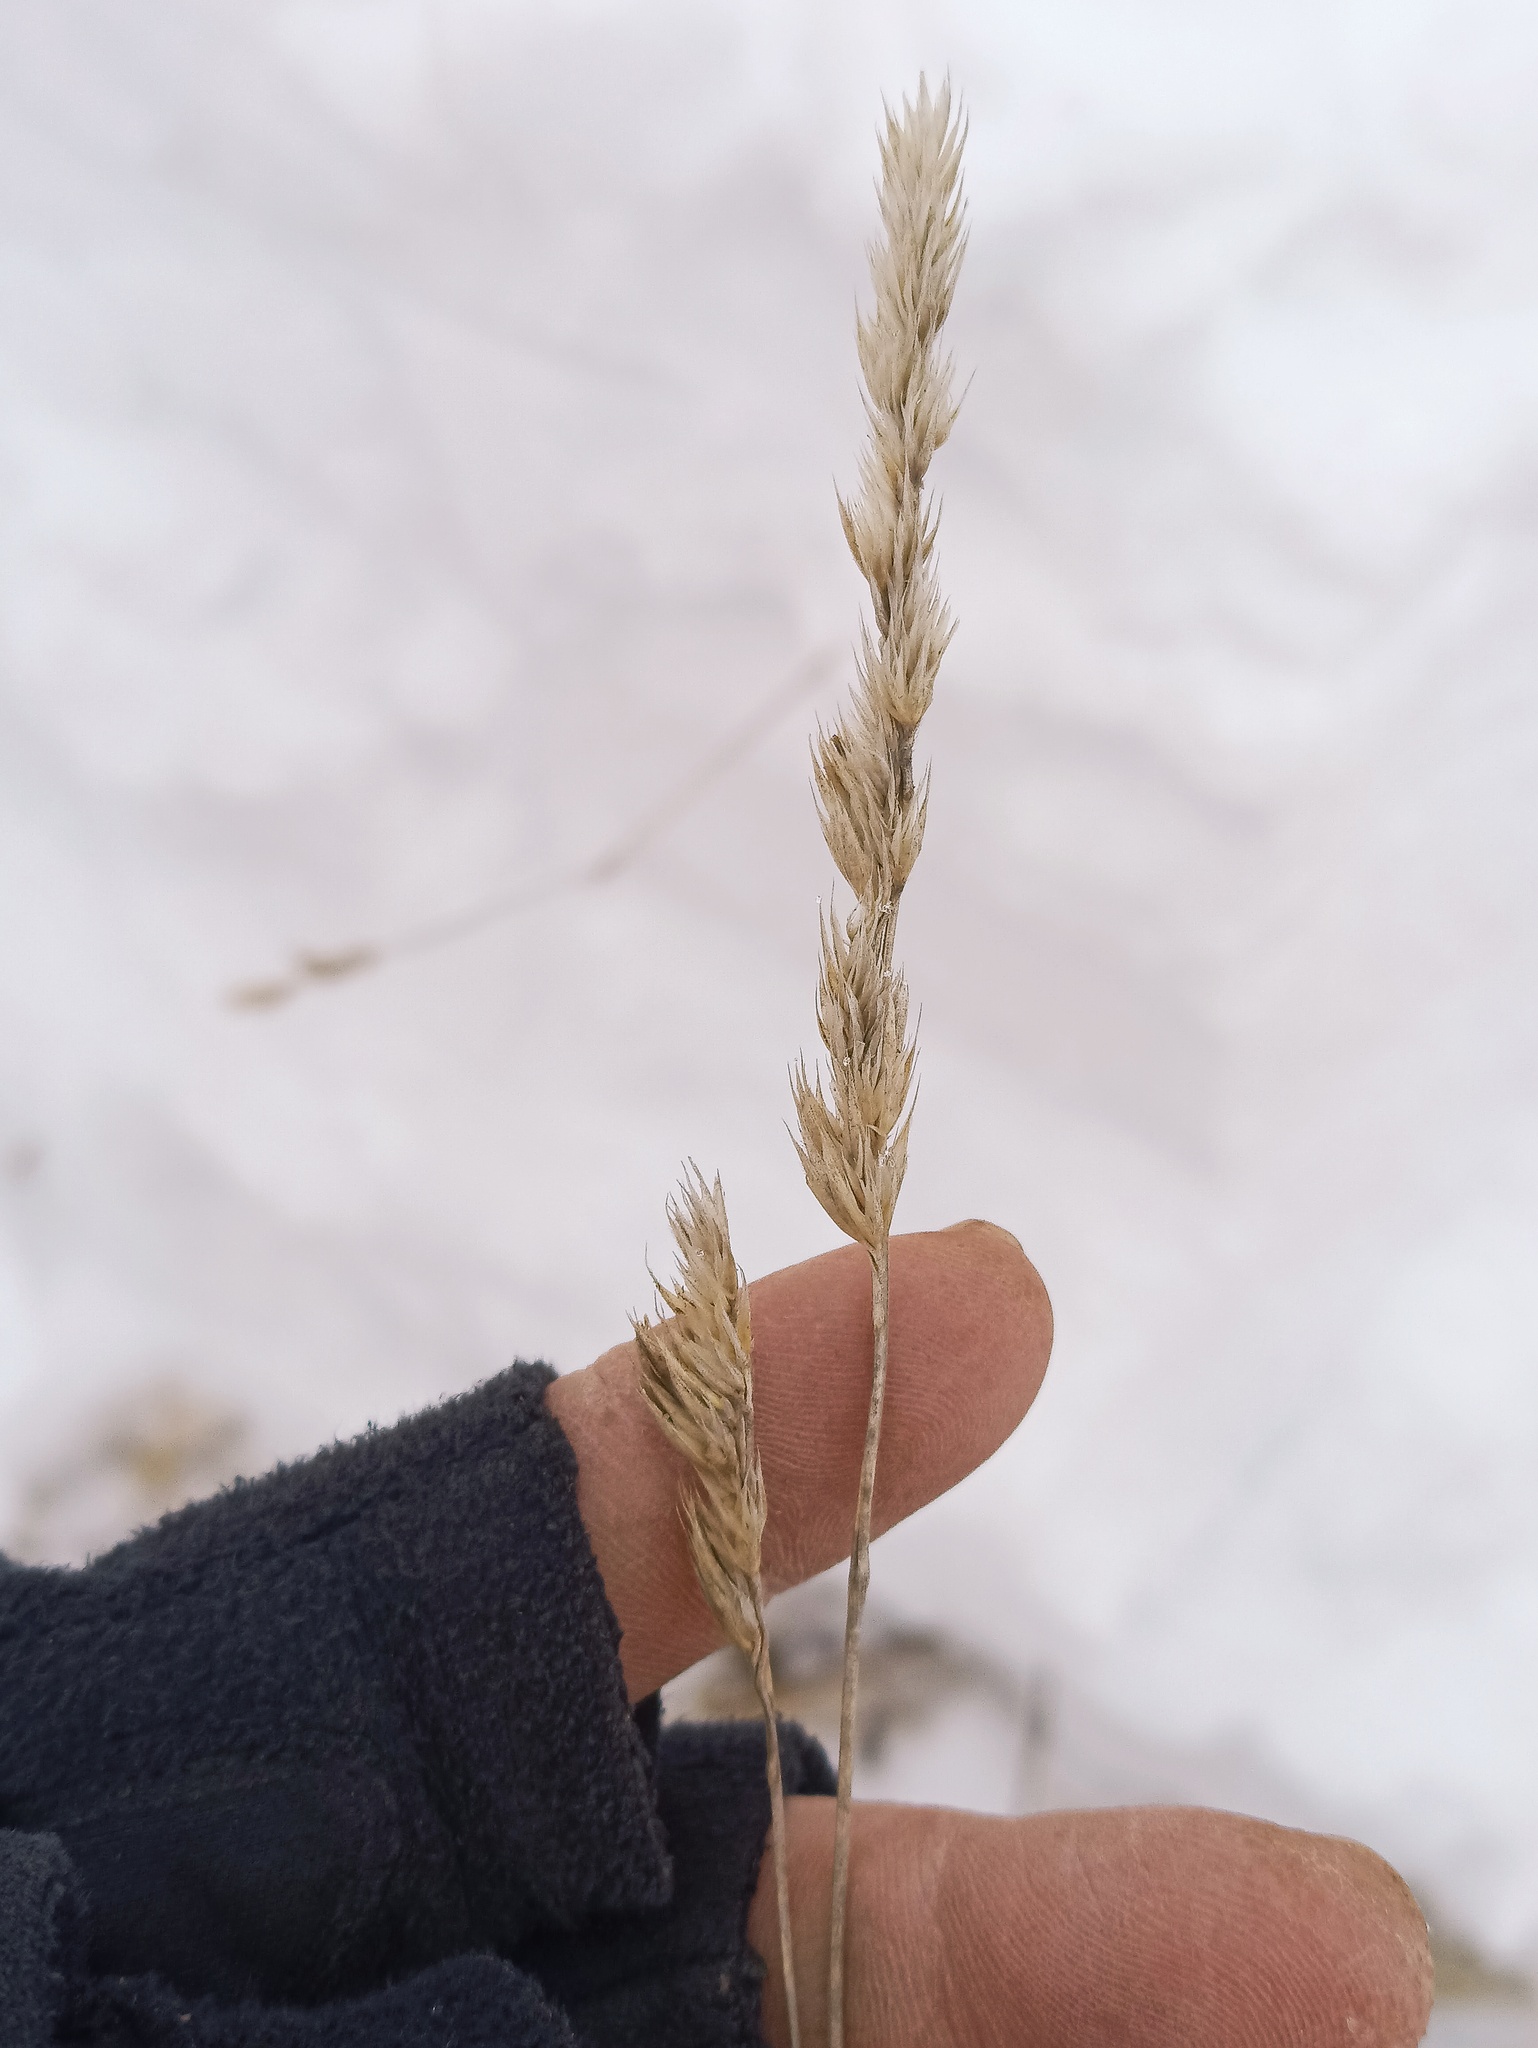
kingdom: Plantae
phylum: Tracheophyta
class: Liliopsida
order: Poales
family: Poaceae
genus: Dactylis
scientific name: Dactylis glomerata
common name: Orchardgrass
